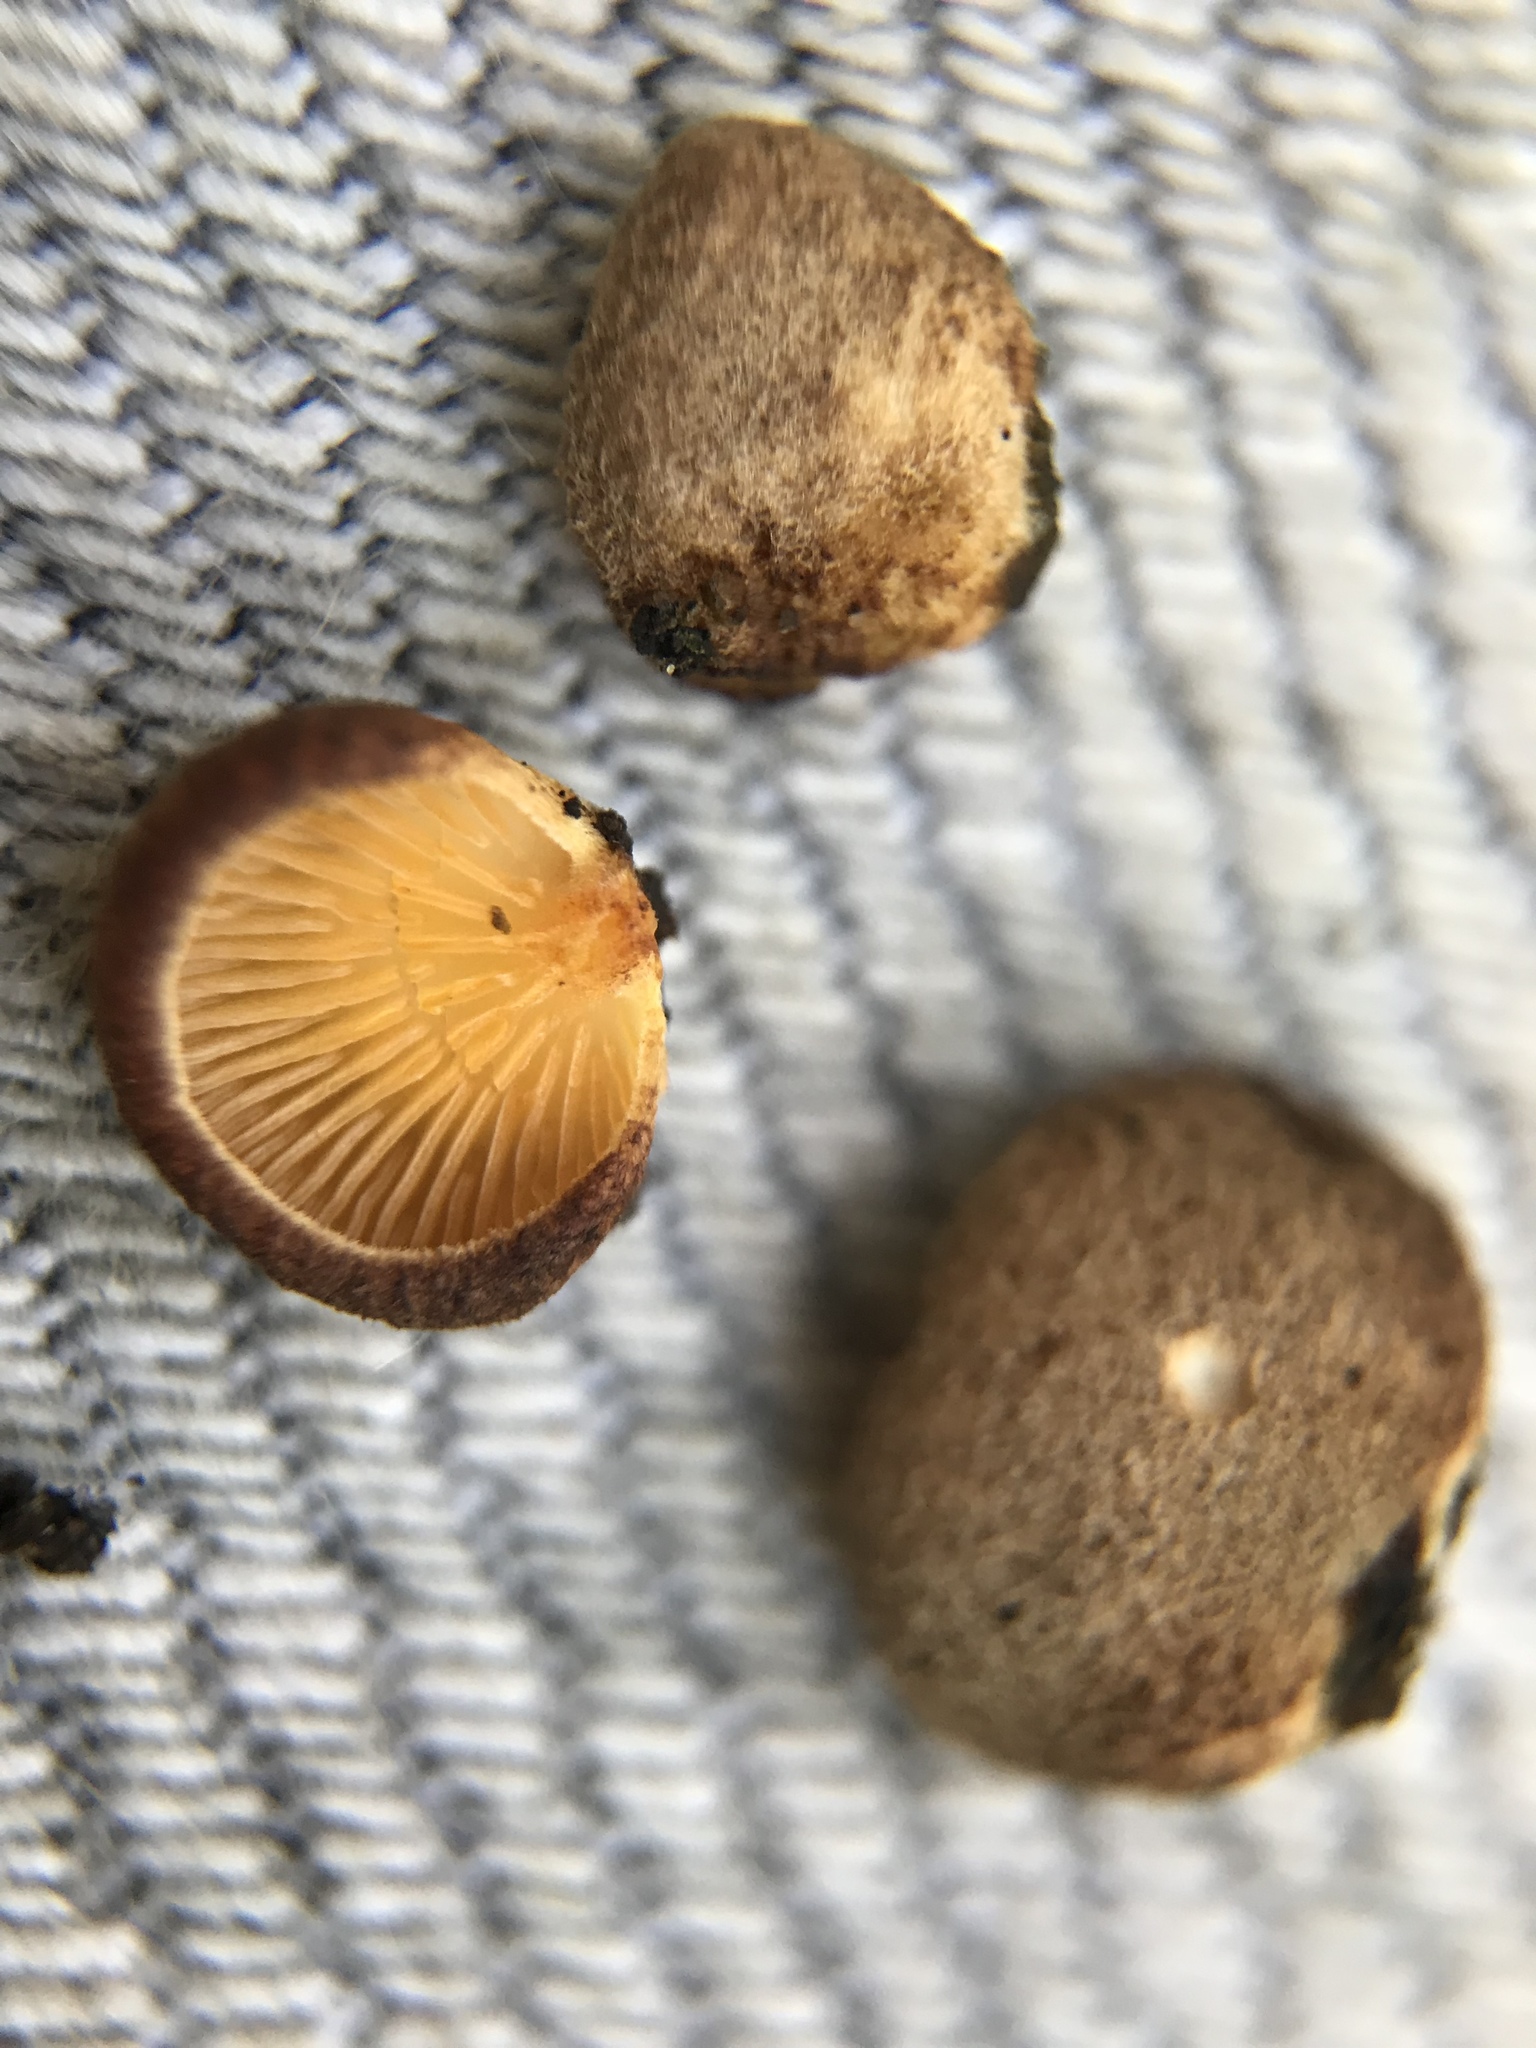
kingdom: Fungi
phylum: Basidiomycota
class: Agaricomycetes
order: Agaricales
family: Crepidotaceae
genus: Crepidotus
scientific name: Crepidotus crocophyllus
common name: Saffron oysterling
